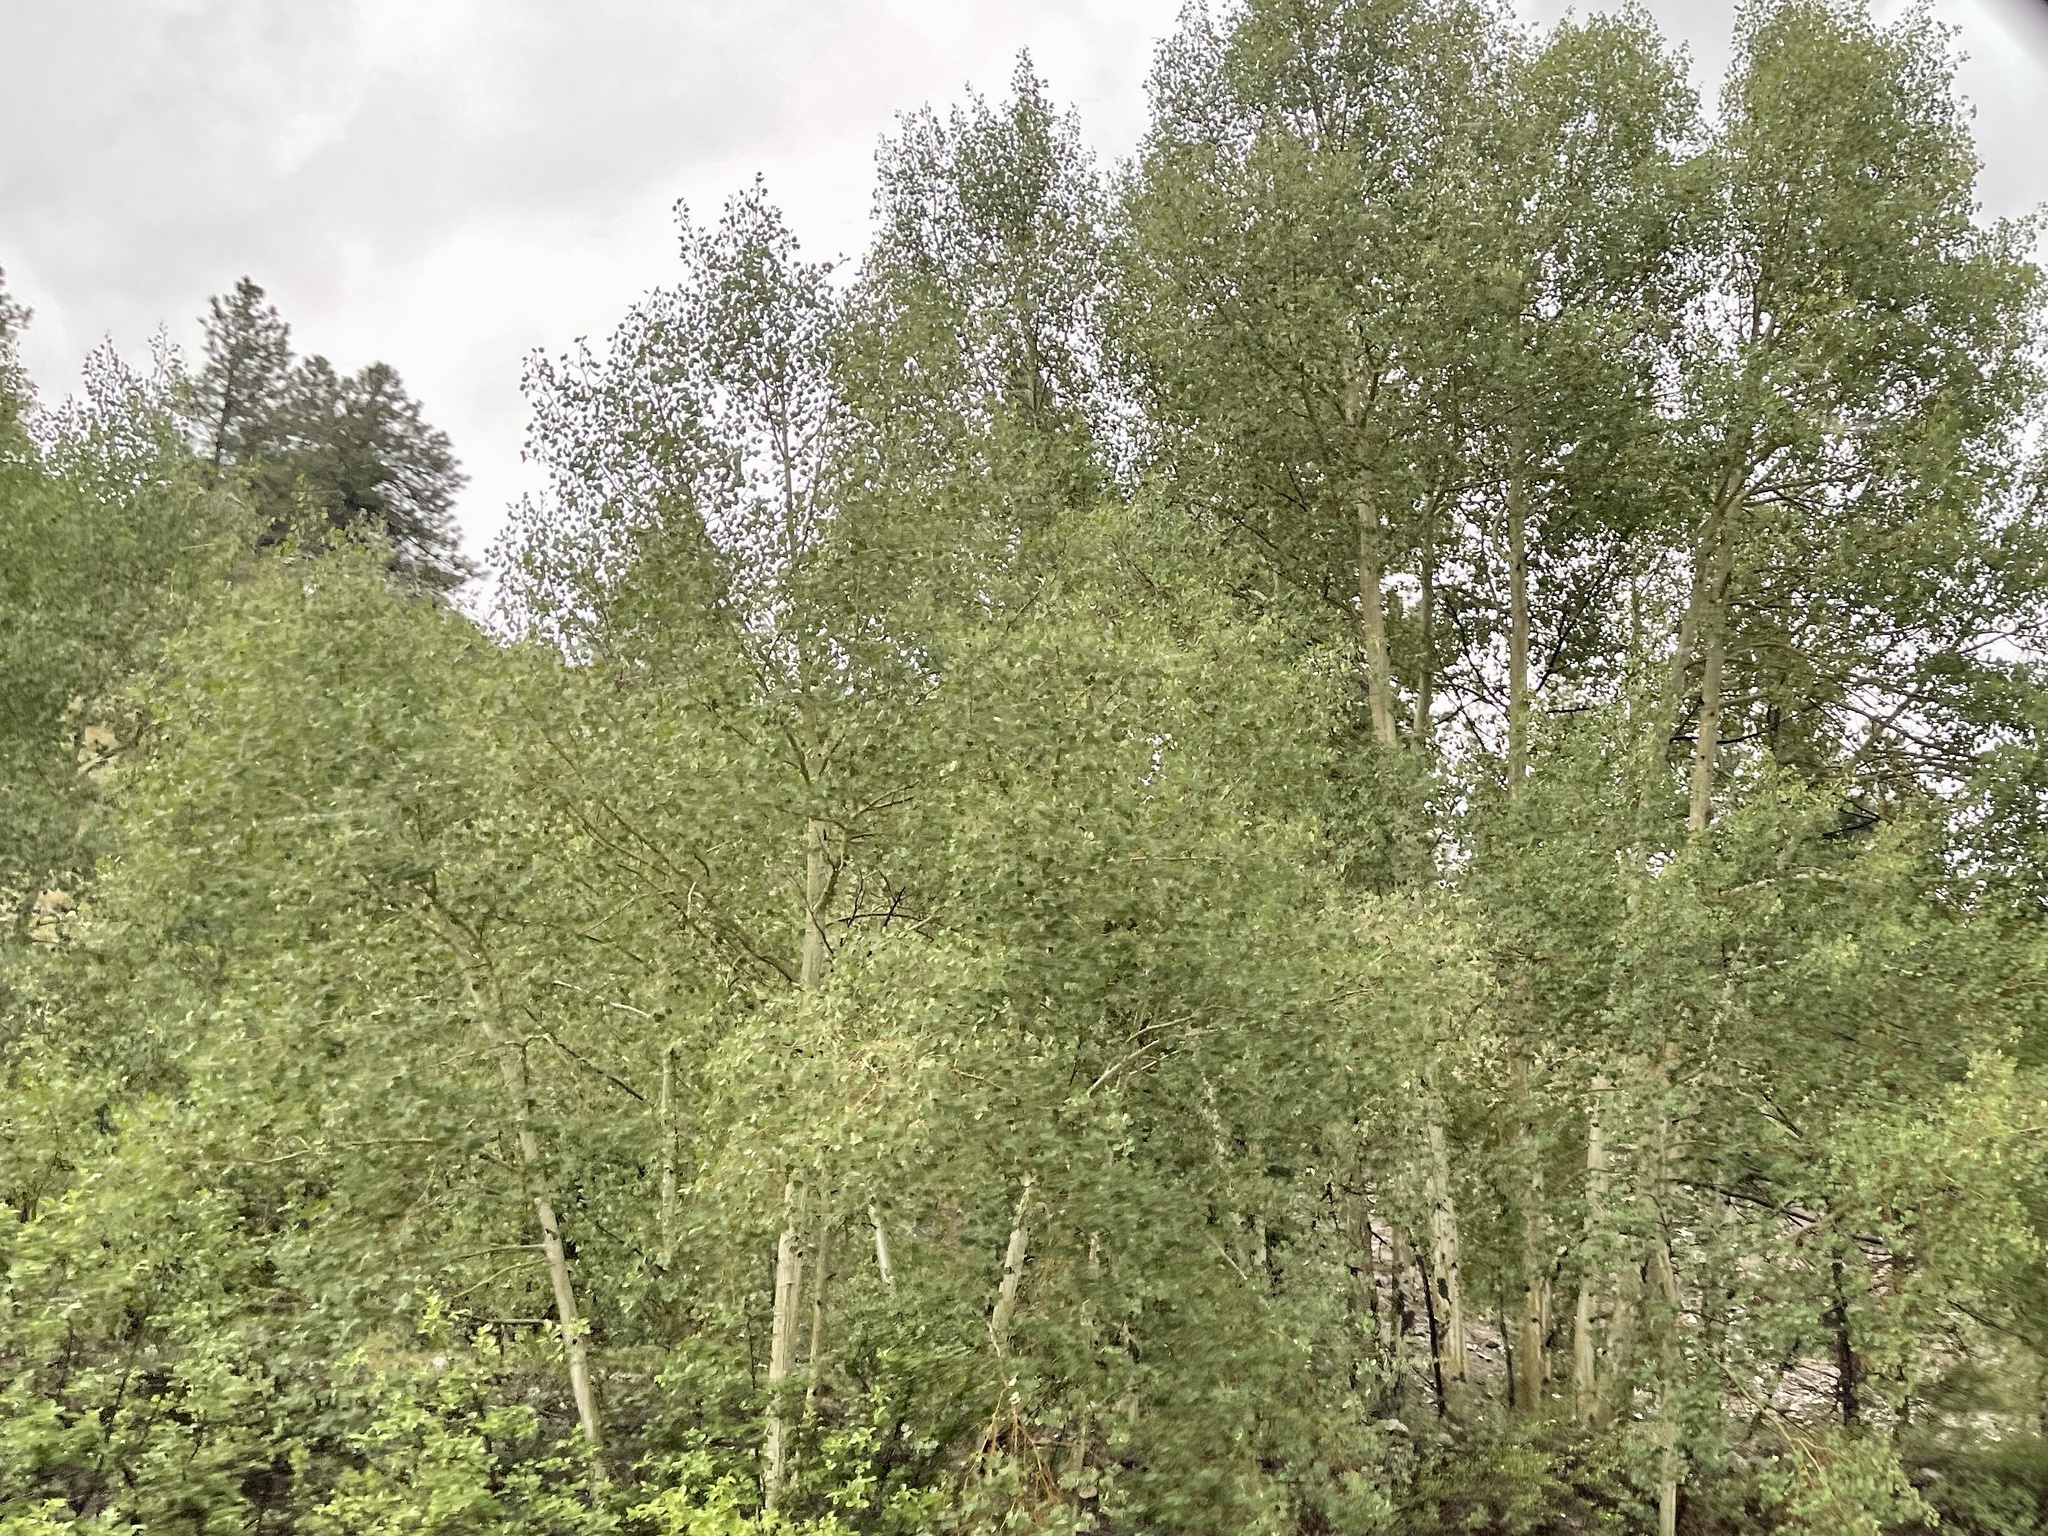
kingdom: Plantae
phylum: Tracheophyta
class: Magnoliopsida
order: Malpighiales
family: Salicaceae
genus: Populus
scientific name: Populus tremuloides
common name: Quaking aspen
